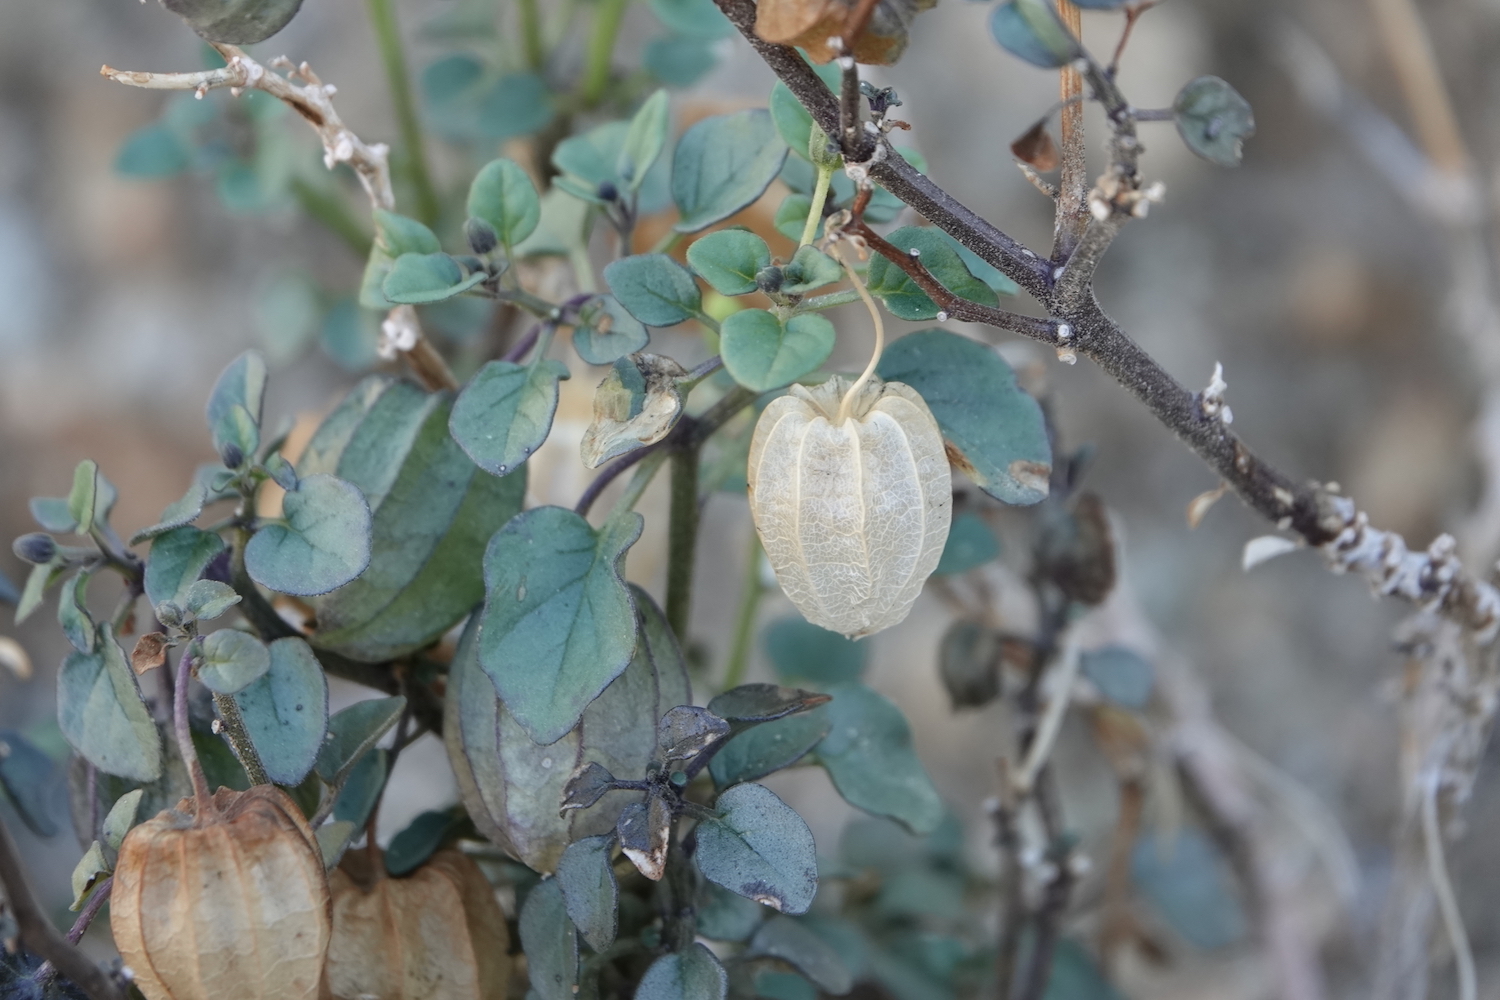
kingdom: Plantae
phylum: Tracheophyta
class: Magnoliopsida
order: Solanales
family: Solanaceae
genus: Physalis
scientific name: Physalis crassifolia
